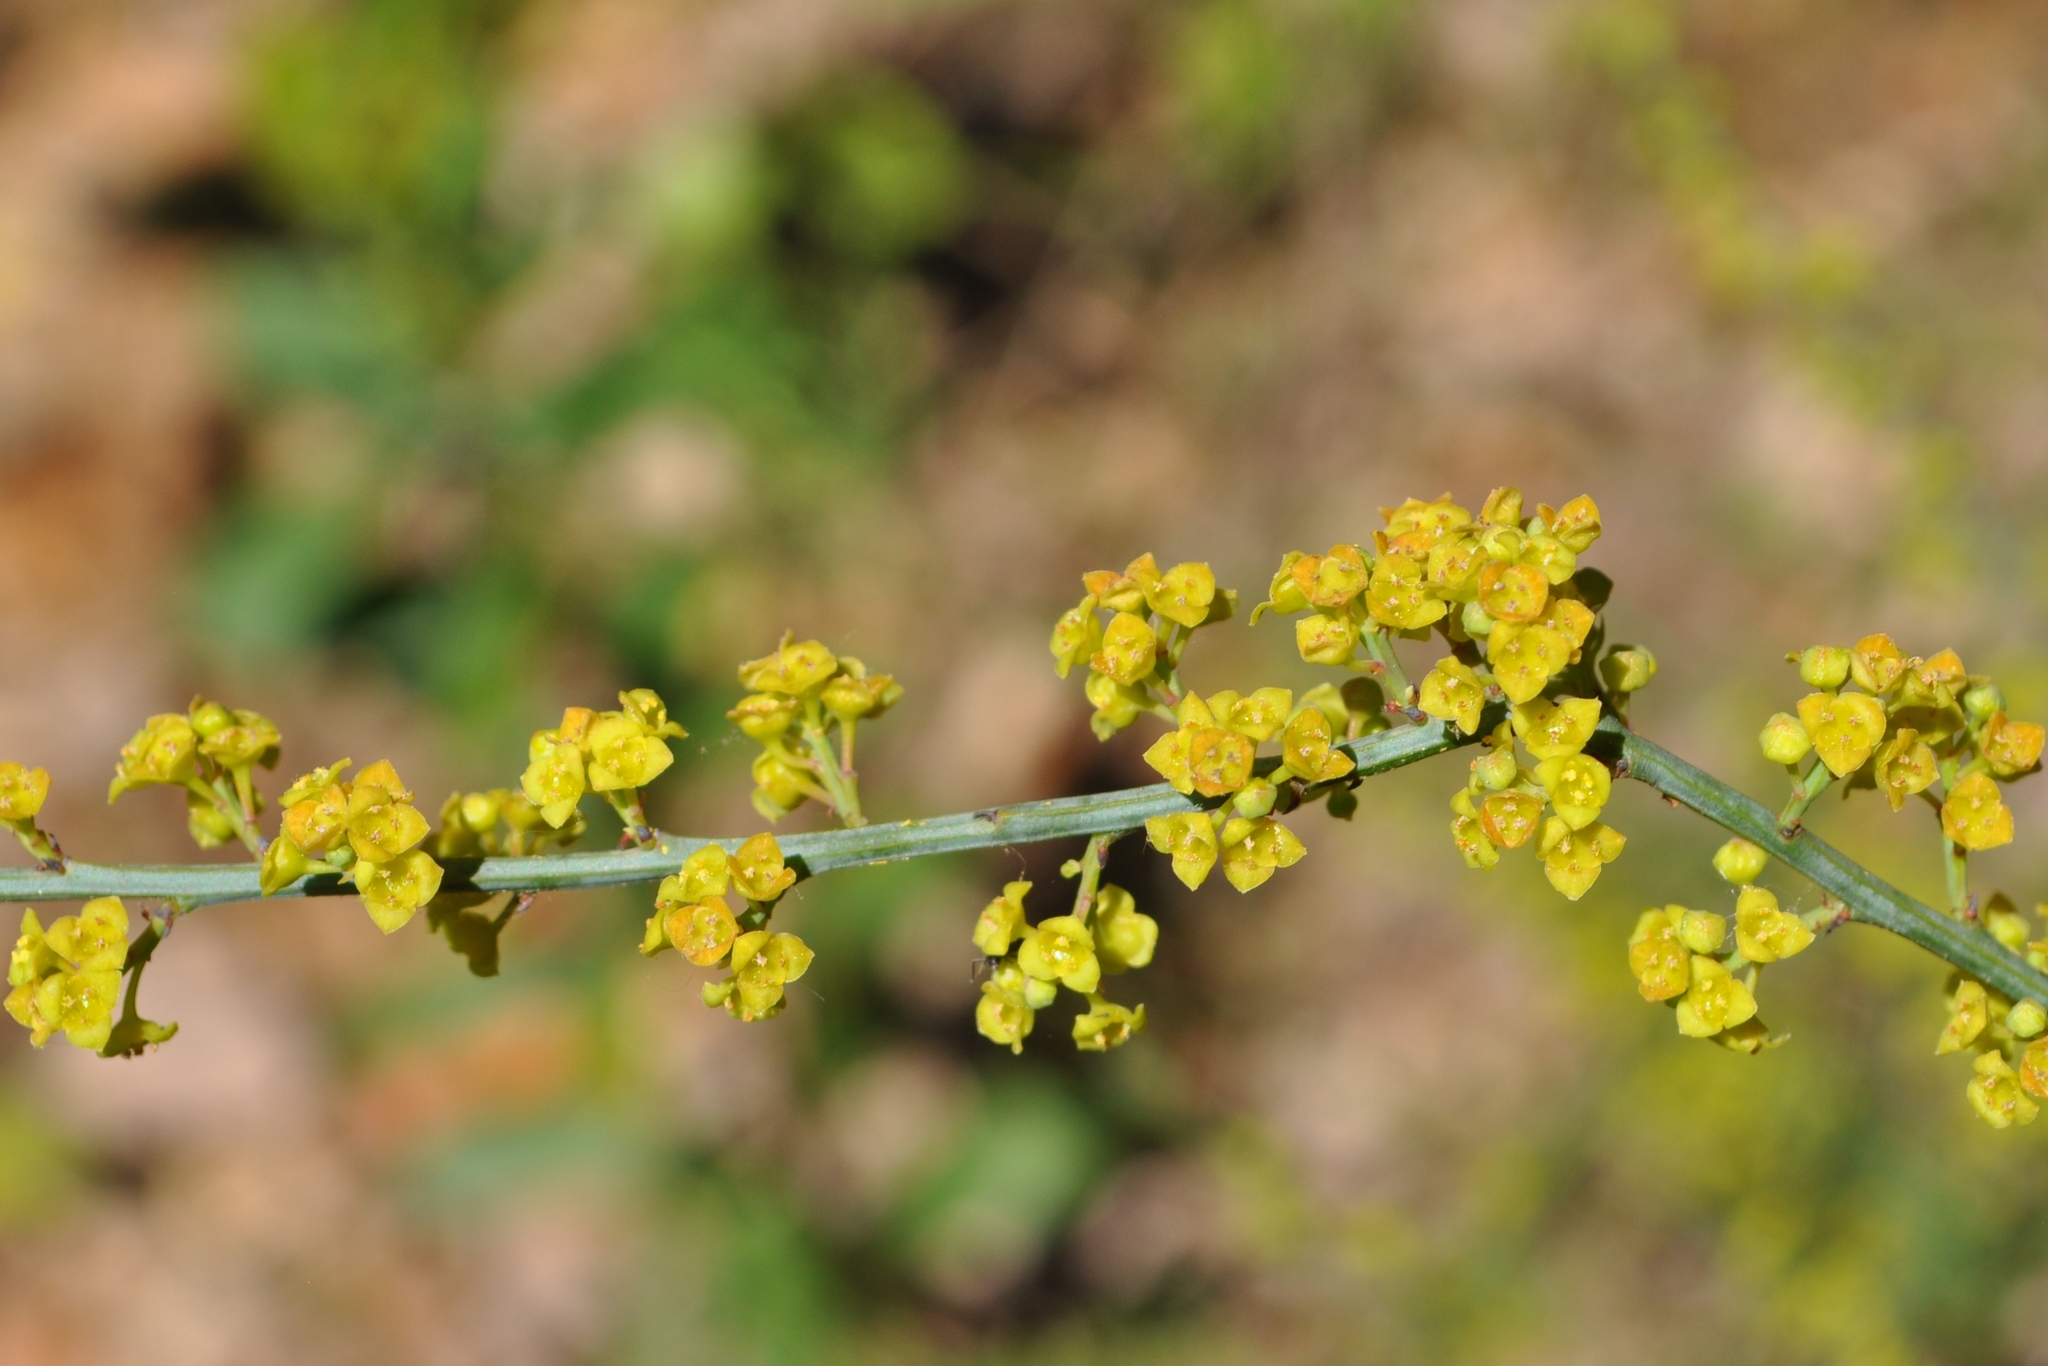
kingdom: Plantae
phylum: Tracheophyta
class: Magnoliopsida
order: Santalales
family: Santalaceae
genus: Osyris
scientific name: Osyris alba
